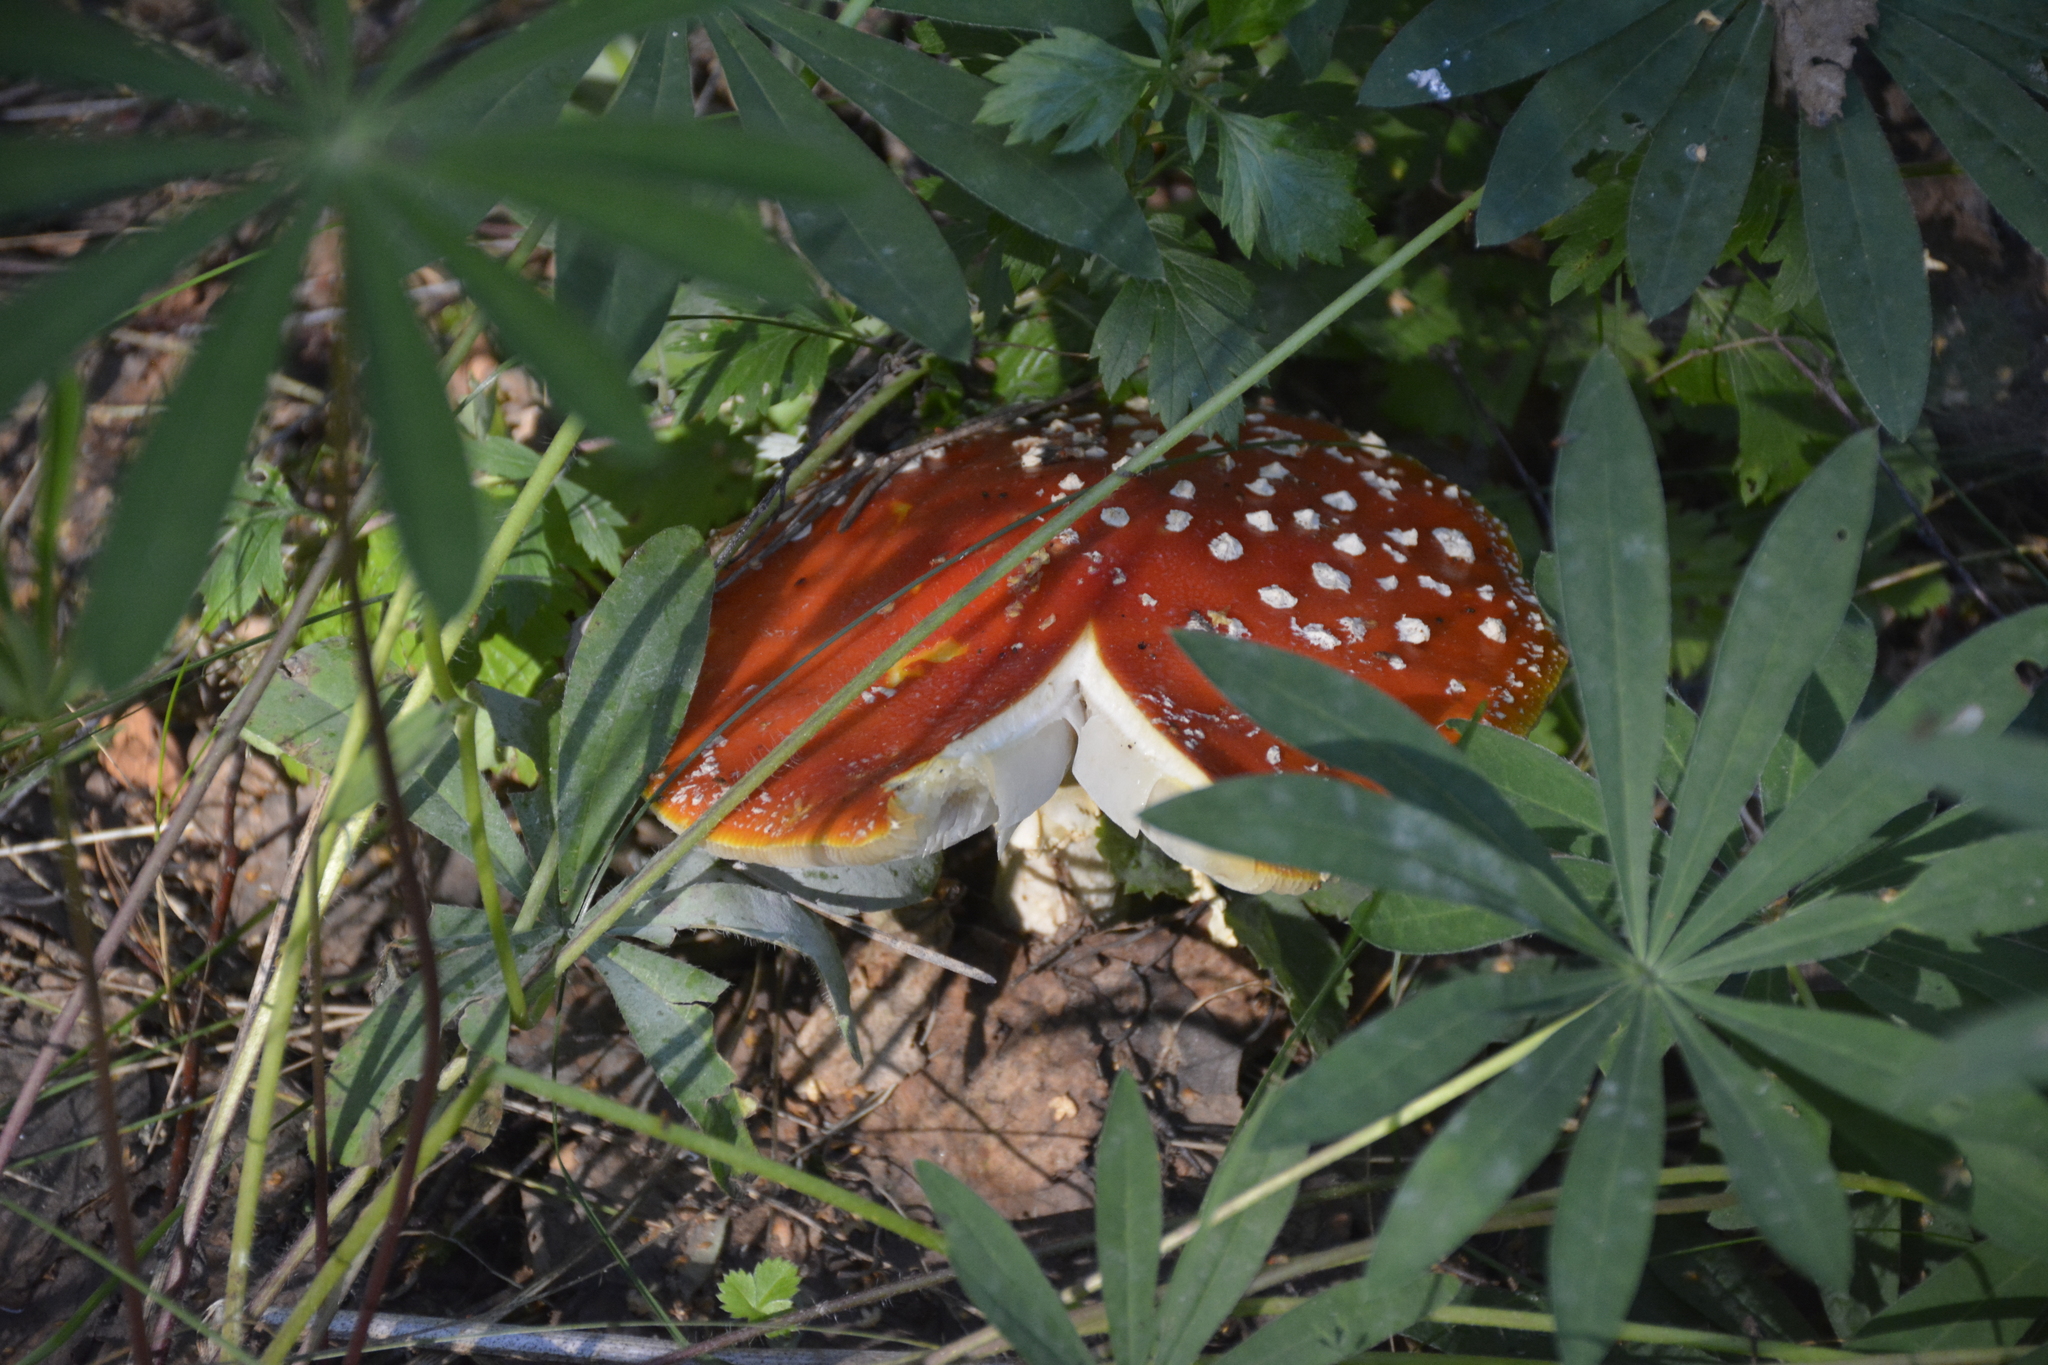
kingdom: Fungi
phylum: Basidiomycota
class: Agaricomycetes
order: Agaricales
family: Amanitaceae
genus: Amanita
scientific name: Amanita muscaria
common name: Fly agaric
